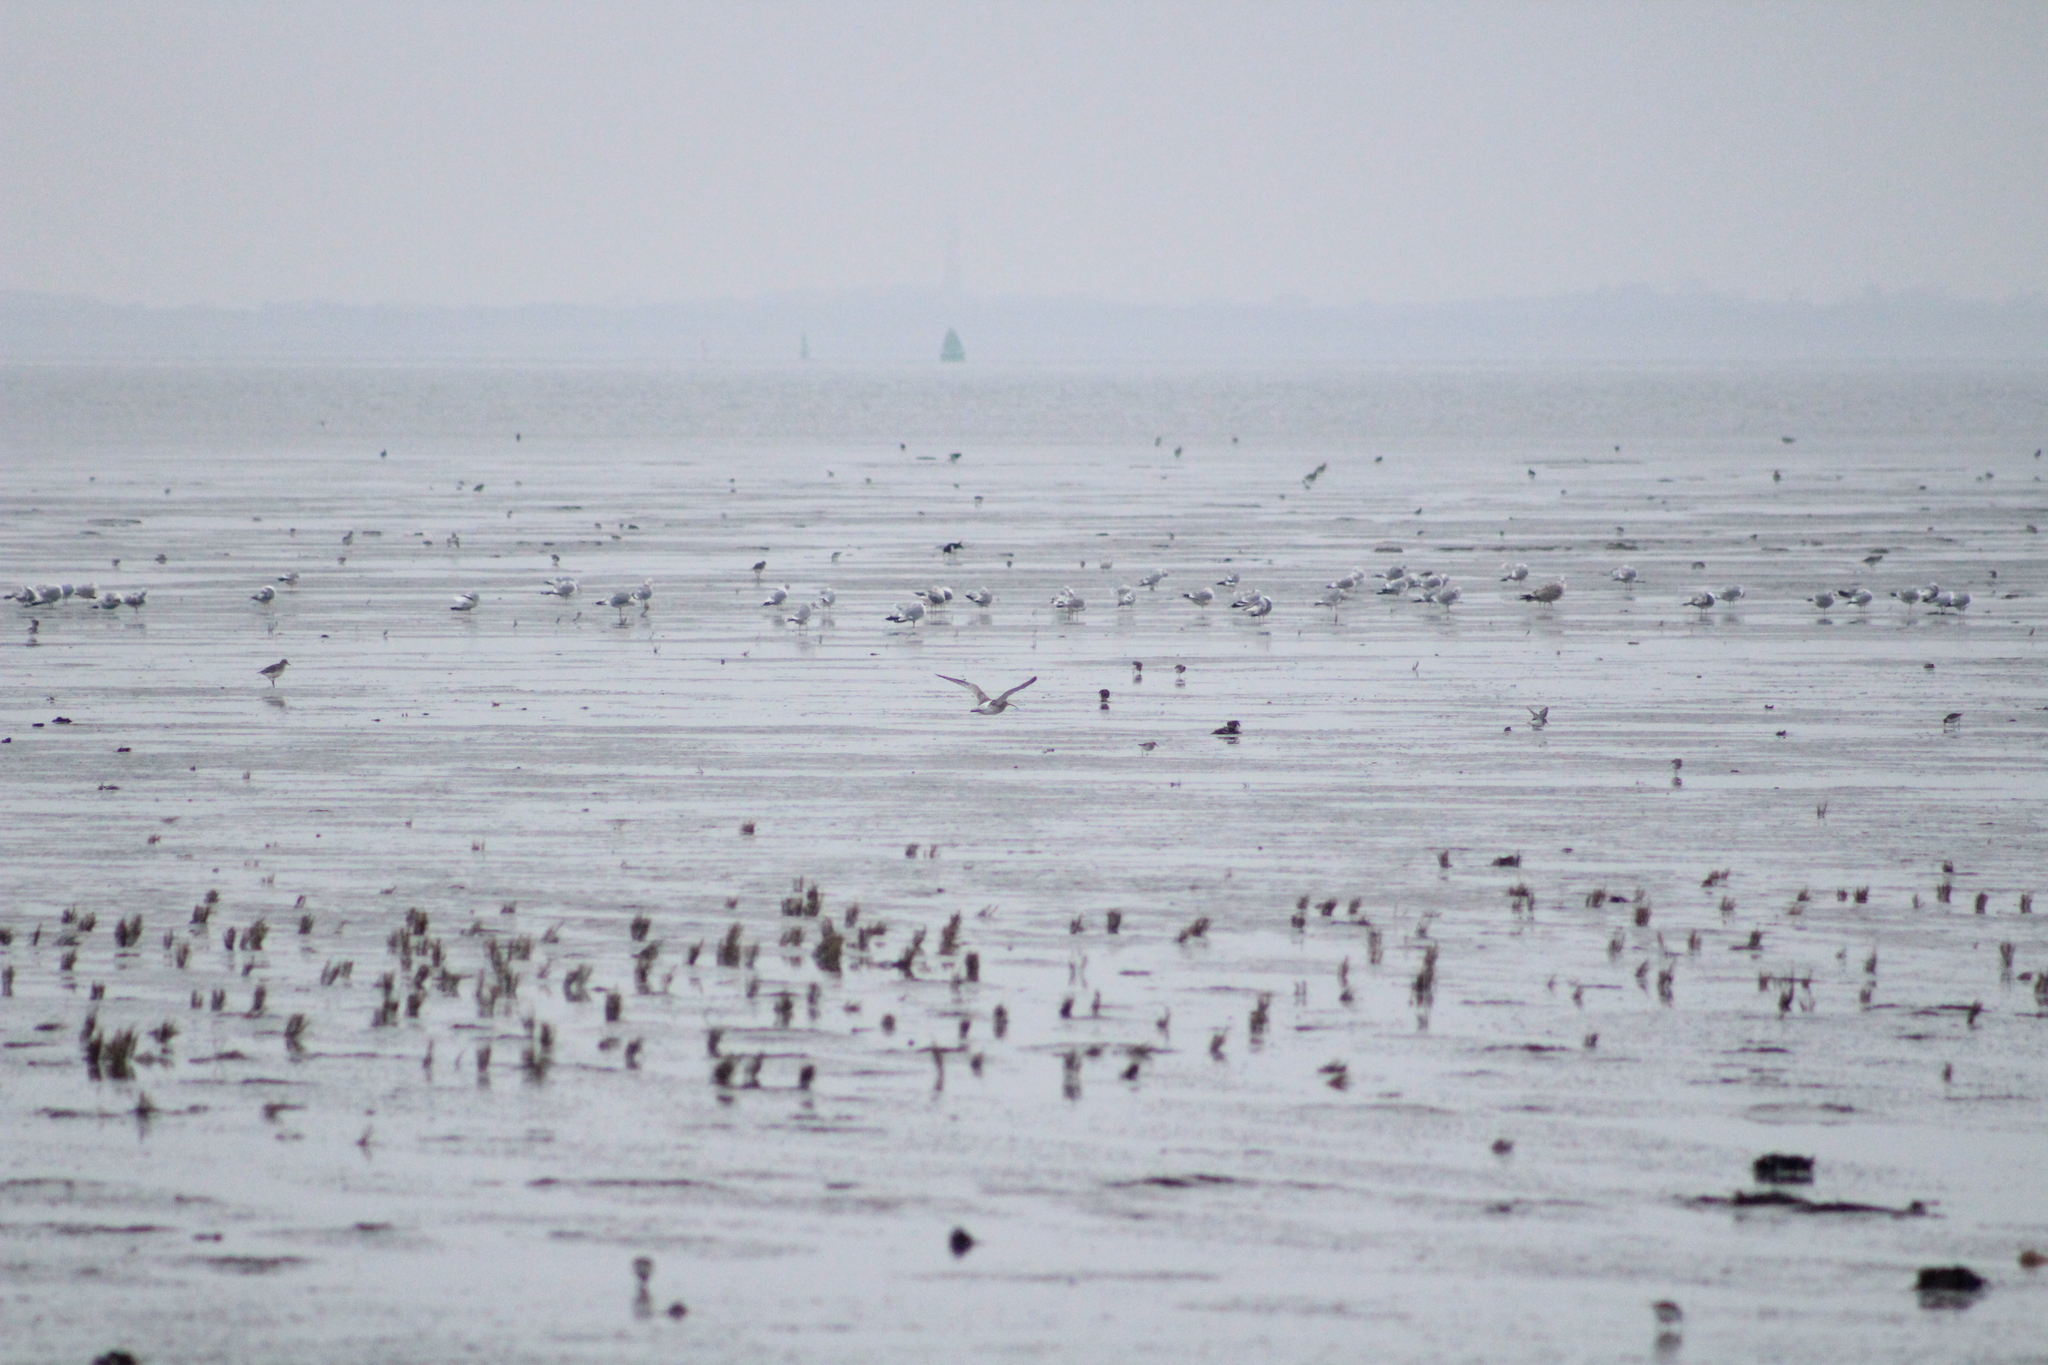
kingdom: Animalia
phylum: Chordata
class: Aves
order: Charadriiformes
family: Scolopacidae
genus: Numenius
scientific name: Numenius arquata
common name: Eurasian curlew
